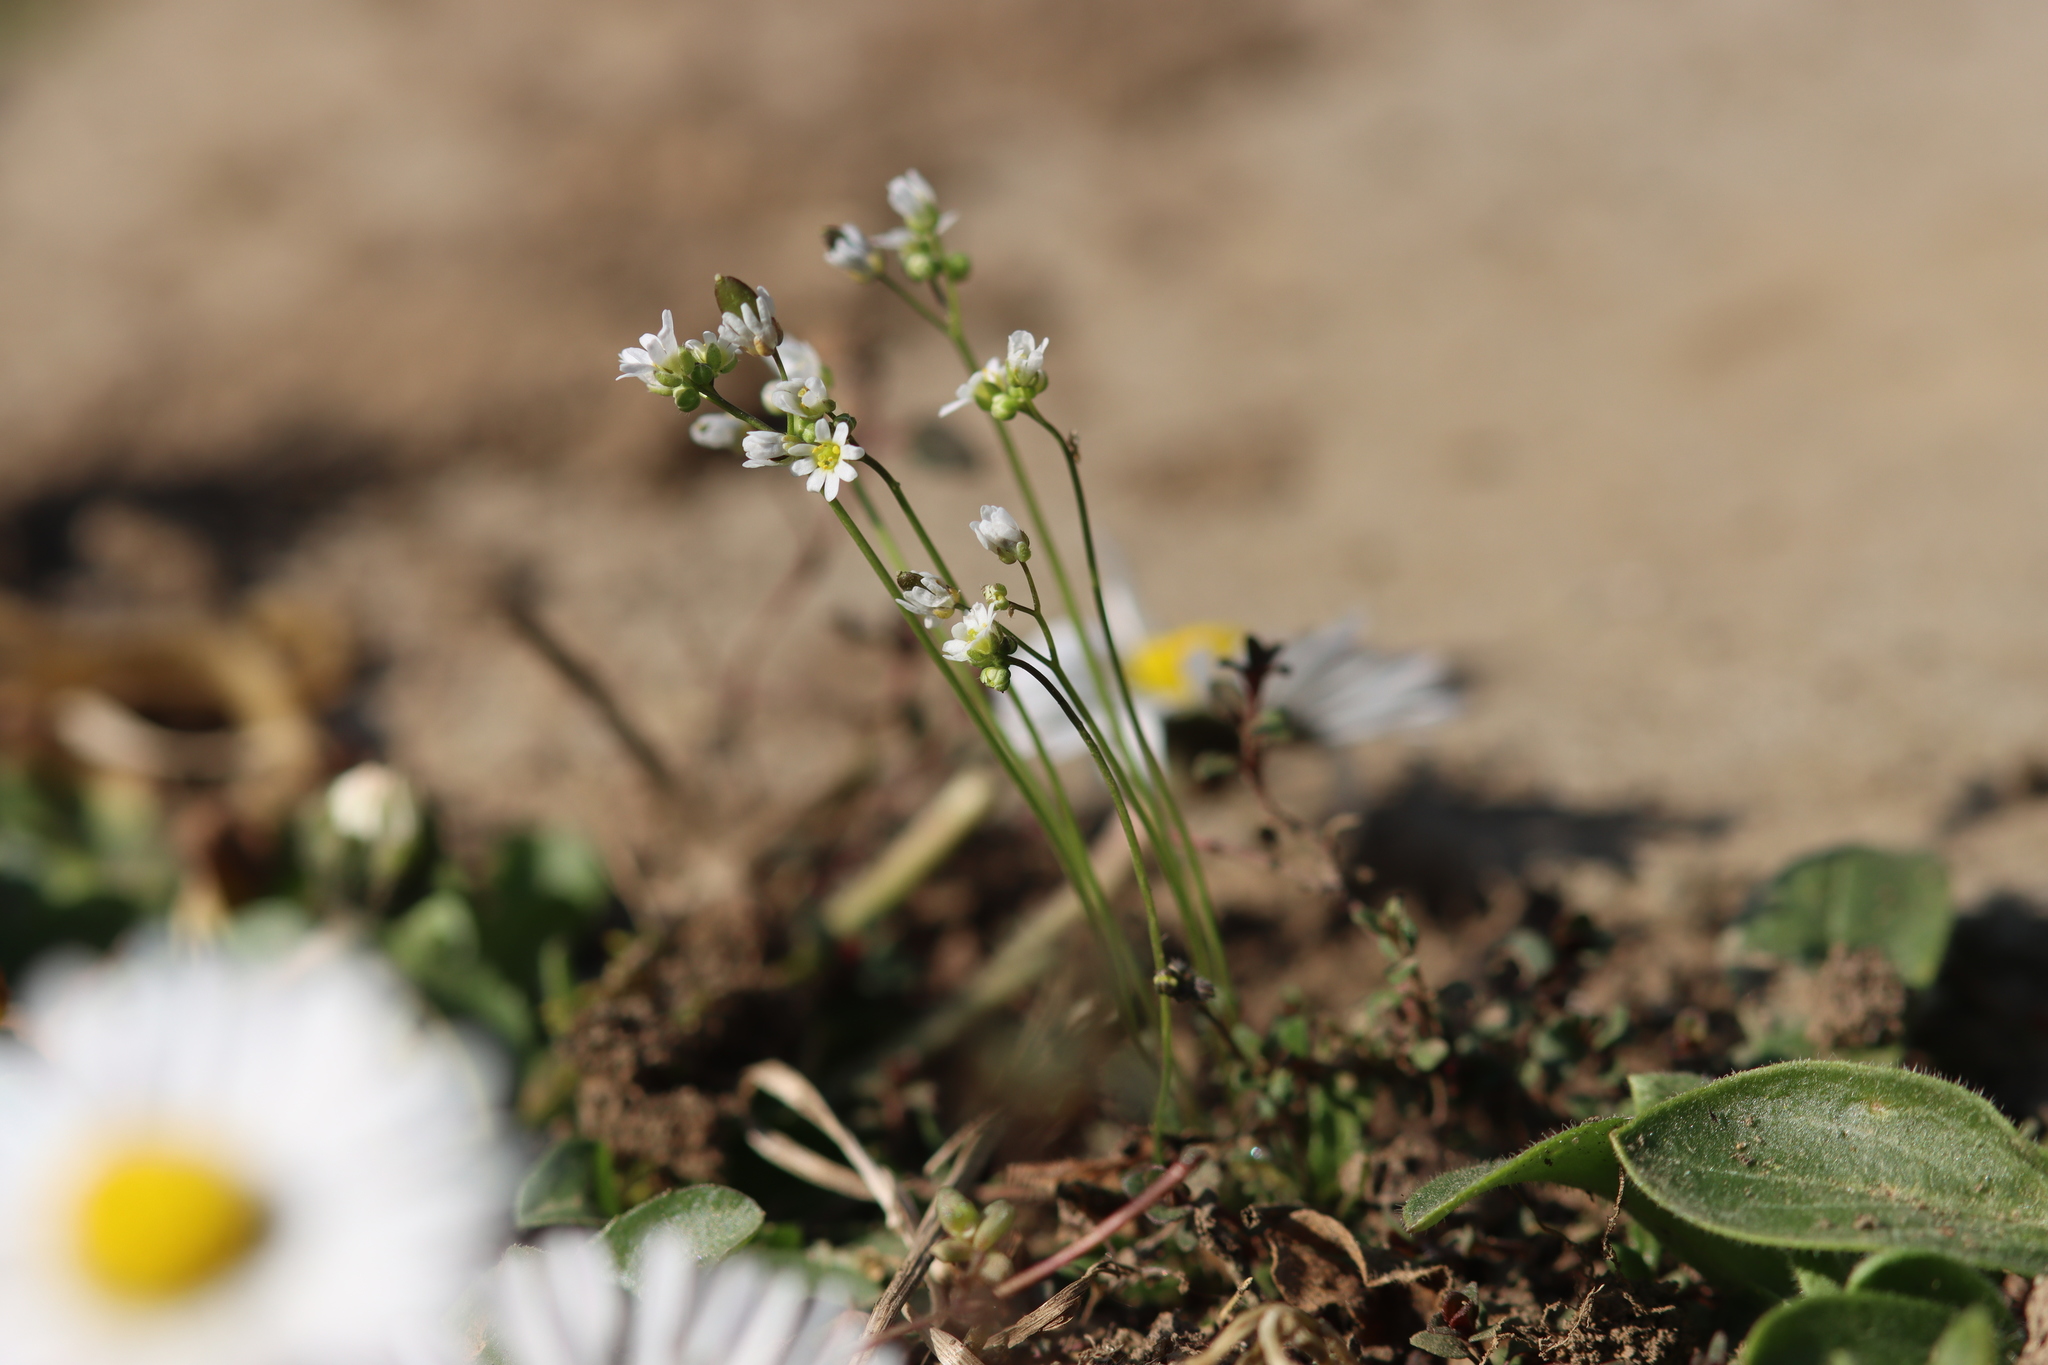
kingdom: Plantae
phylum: Tracheophyta
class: Magnoliopsida
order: Brassicales
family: Brassicaceae
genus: Draba
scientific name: Draba verna
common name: Spring draba
